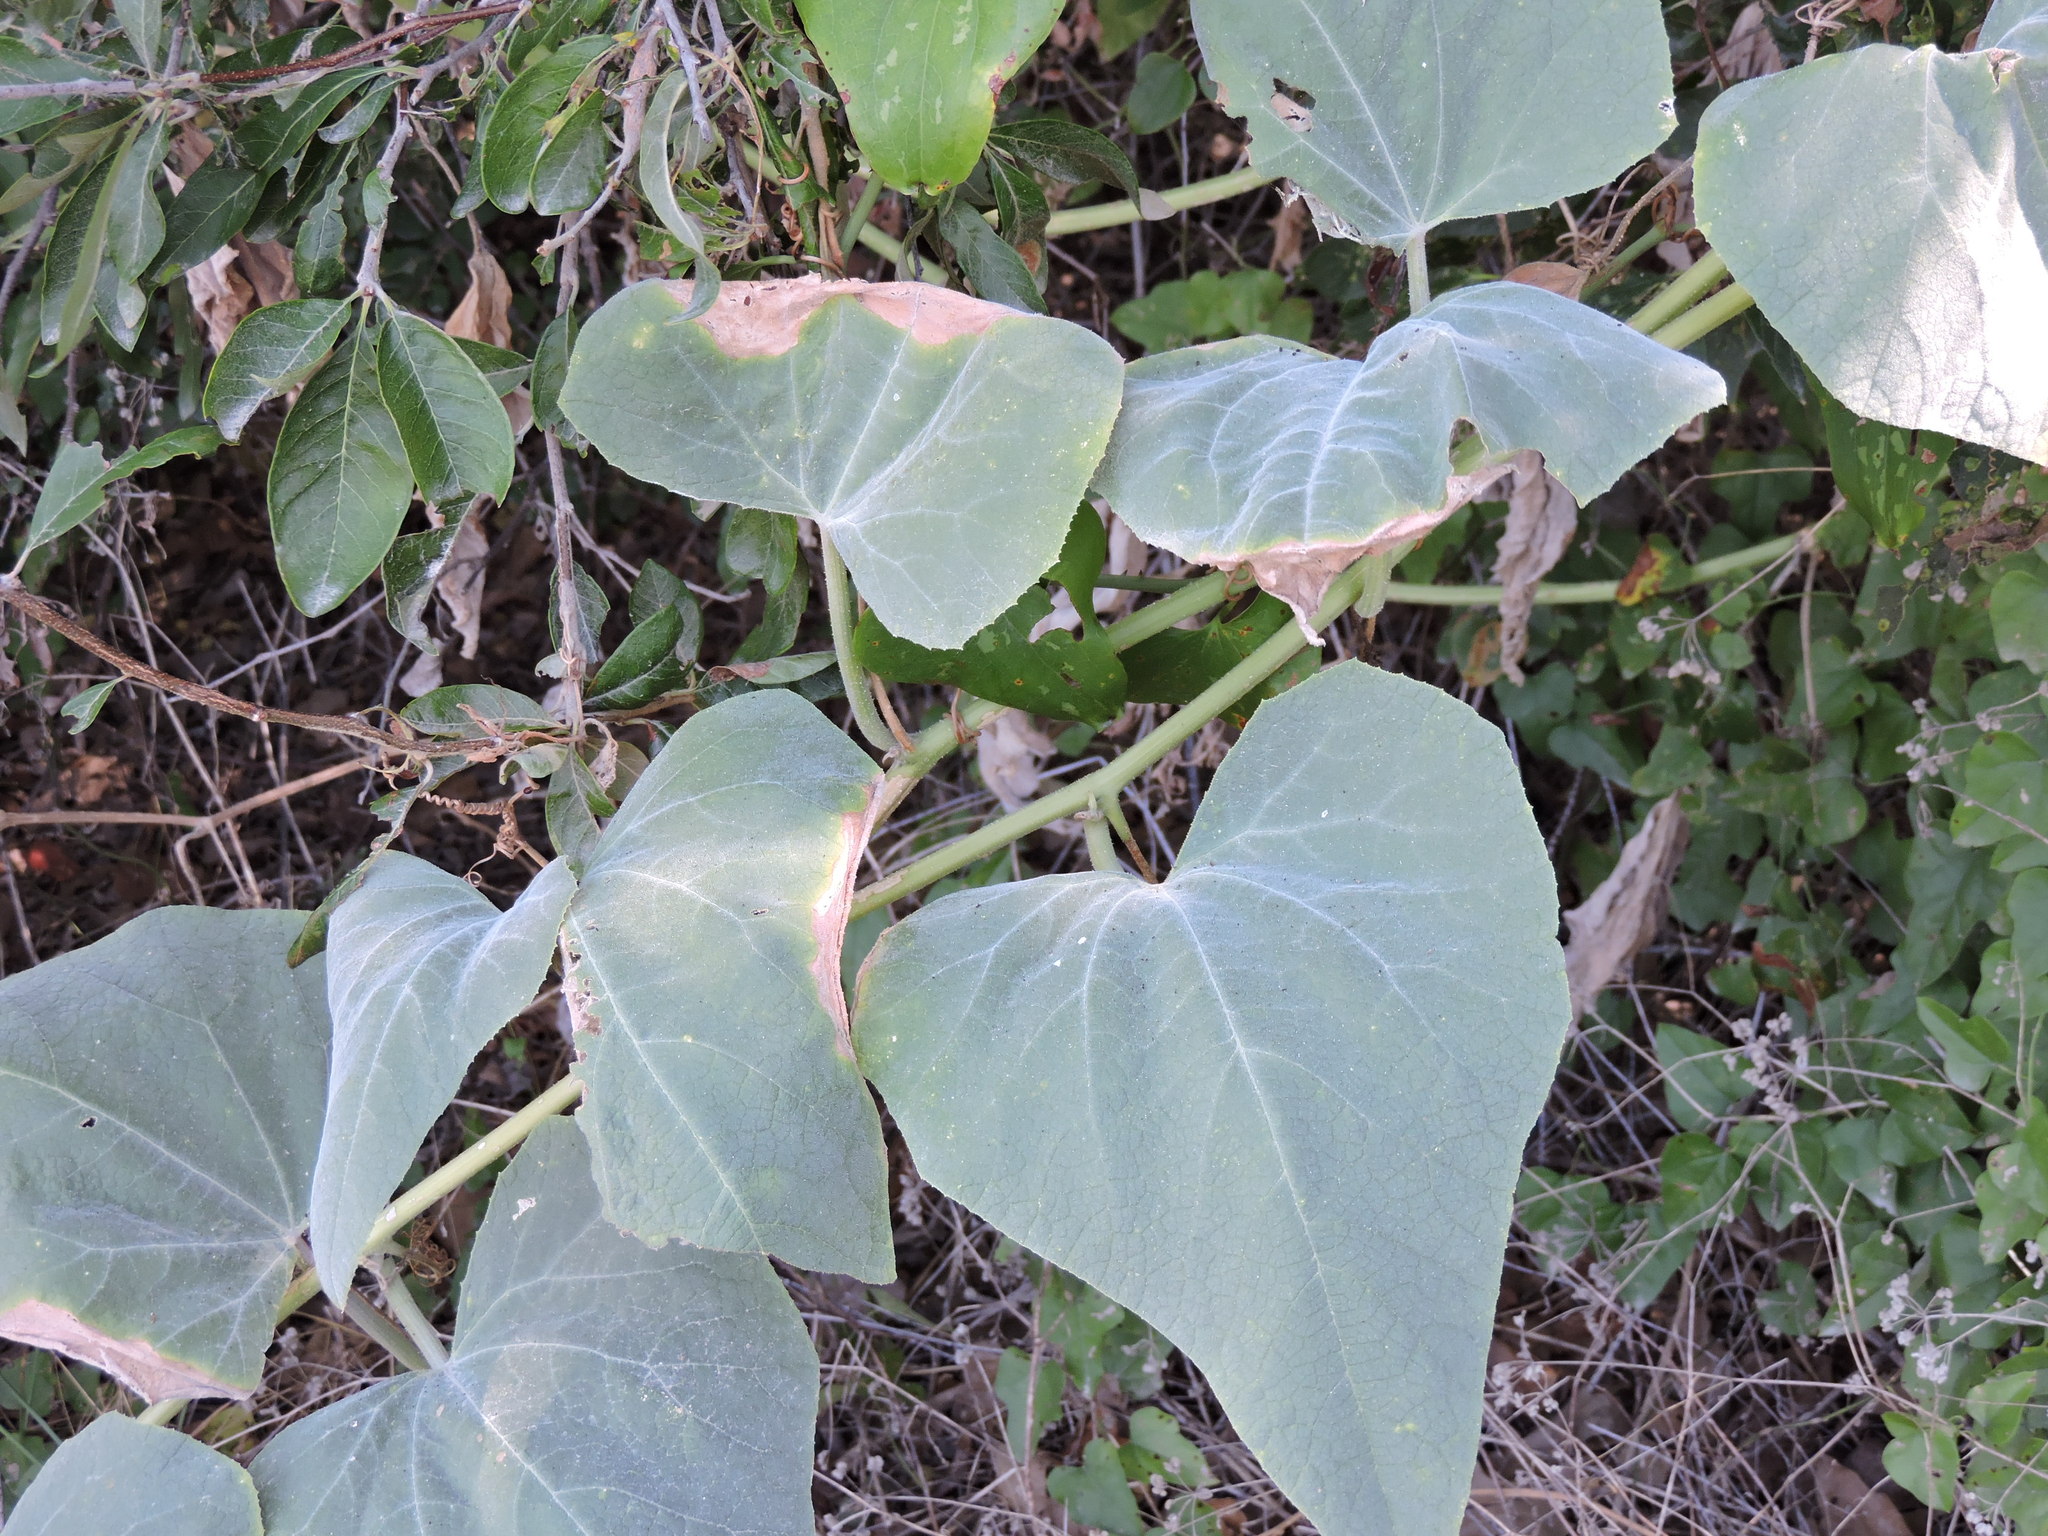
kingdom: Plantae
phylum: Tracheophyta
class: Magnoliopsida
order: Cucurbitales
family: Cucurbitaceae
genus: Cucurbita
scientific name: Cucurbita foetidissima
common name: Buffalo gourd
